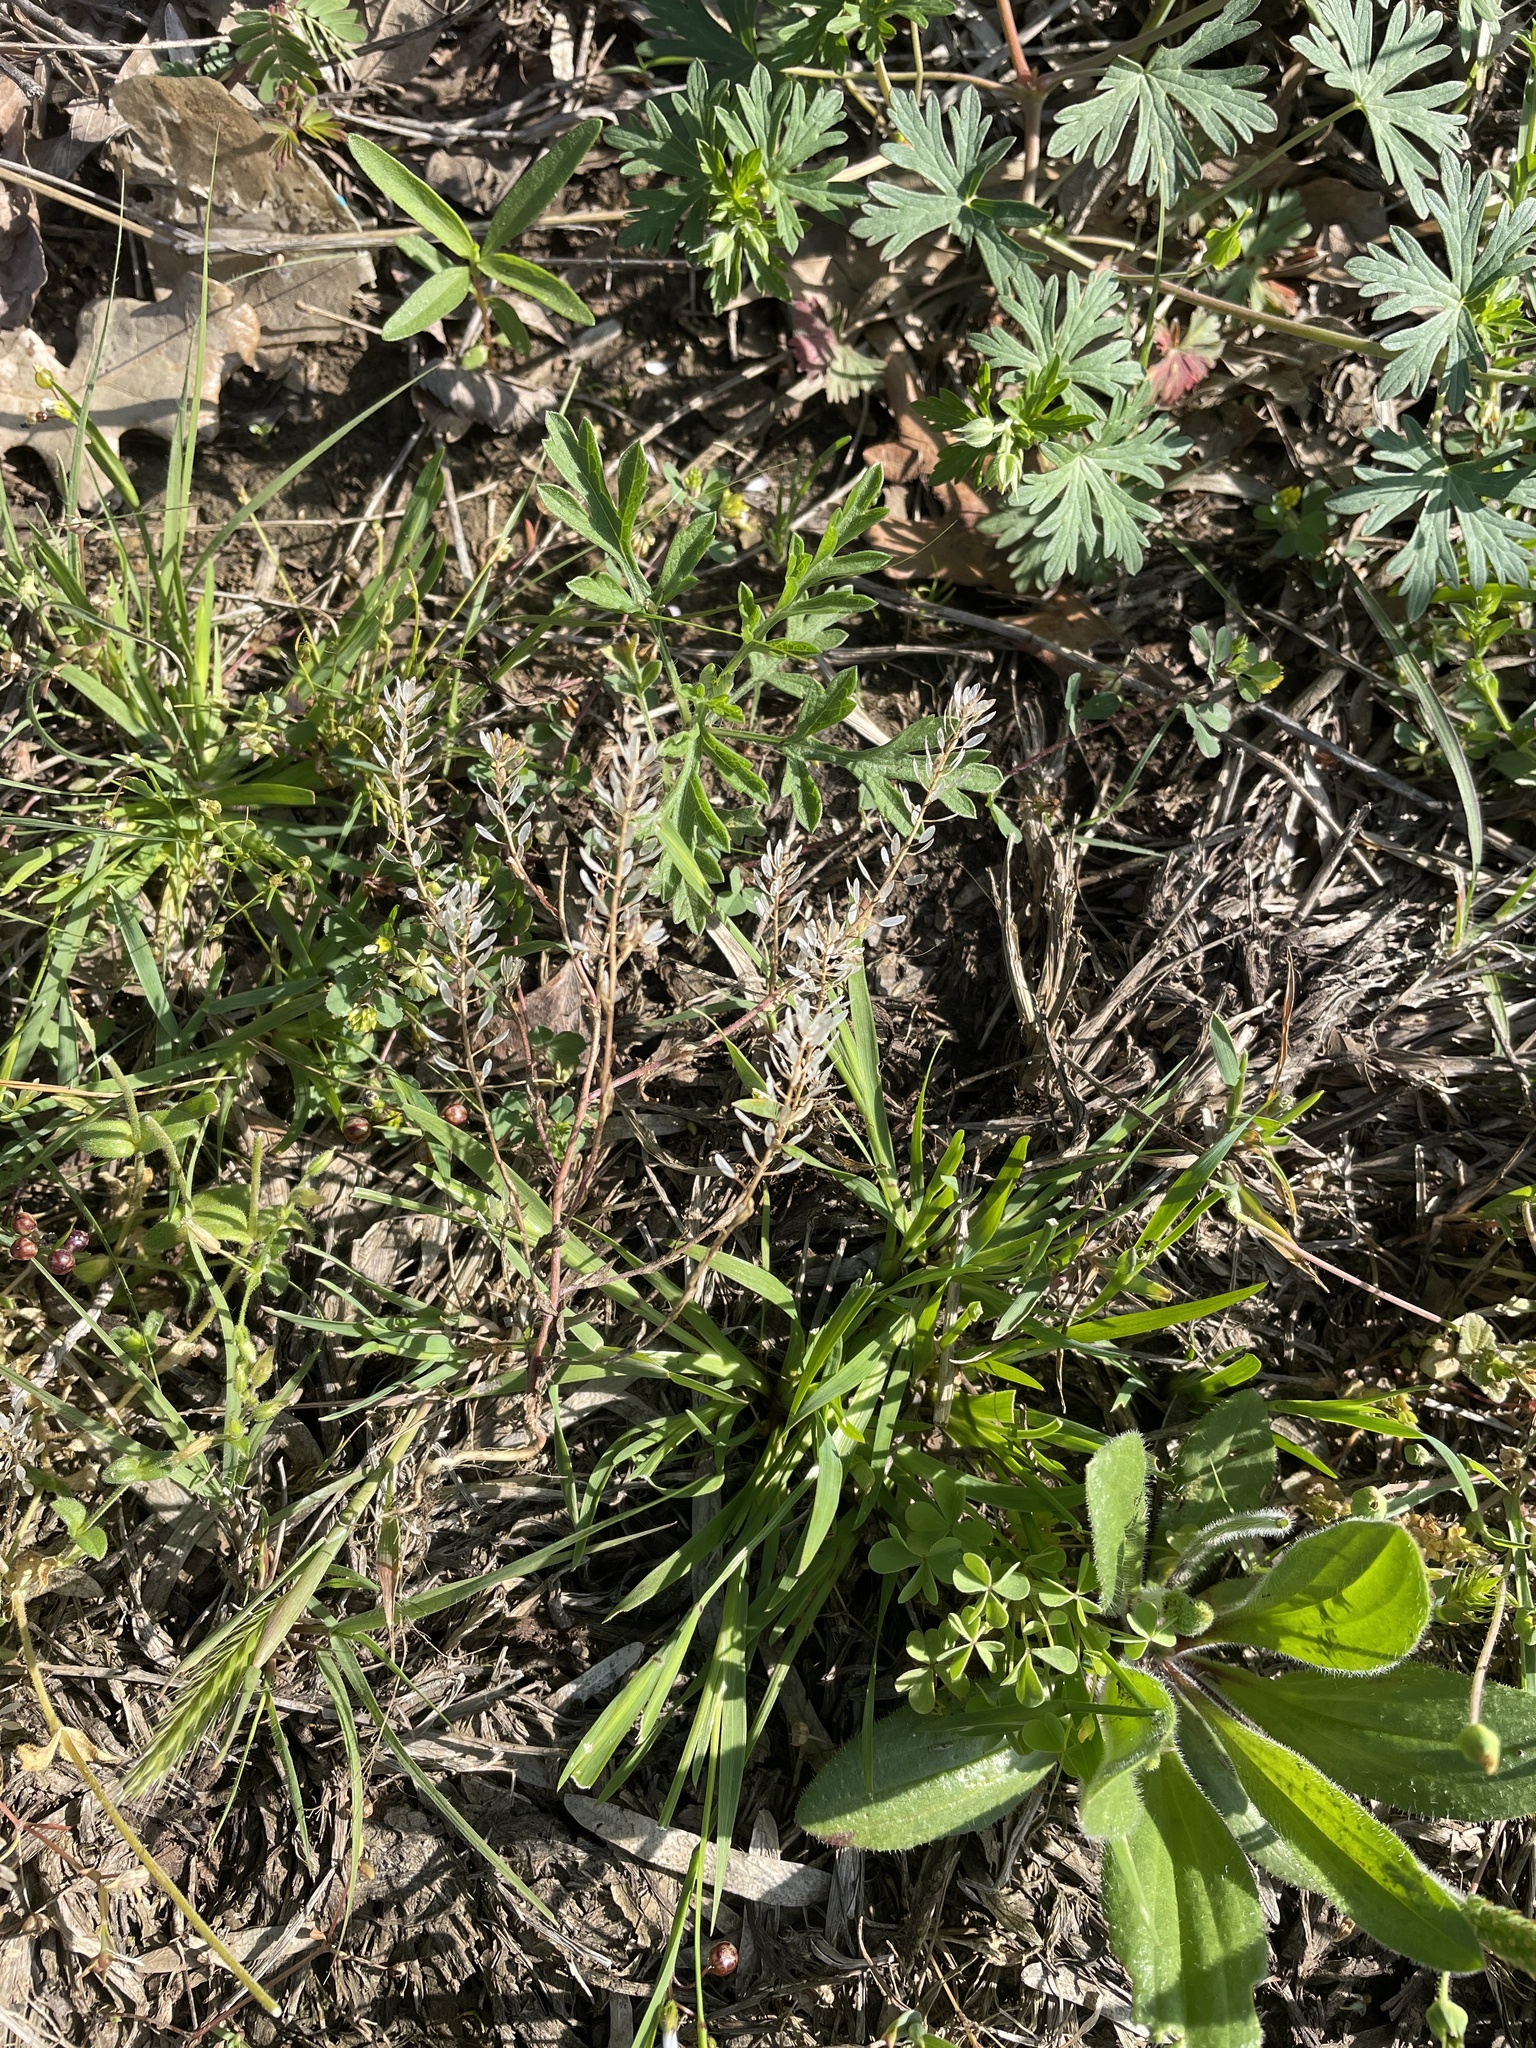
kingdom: Plantae
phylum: Tracheophyta
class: Magnoliopsida
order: Brassicales
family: Brassicaceae
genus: Abdra
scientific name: Abdra brachycarpa
